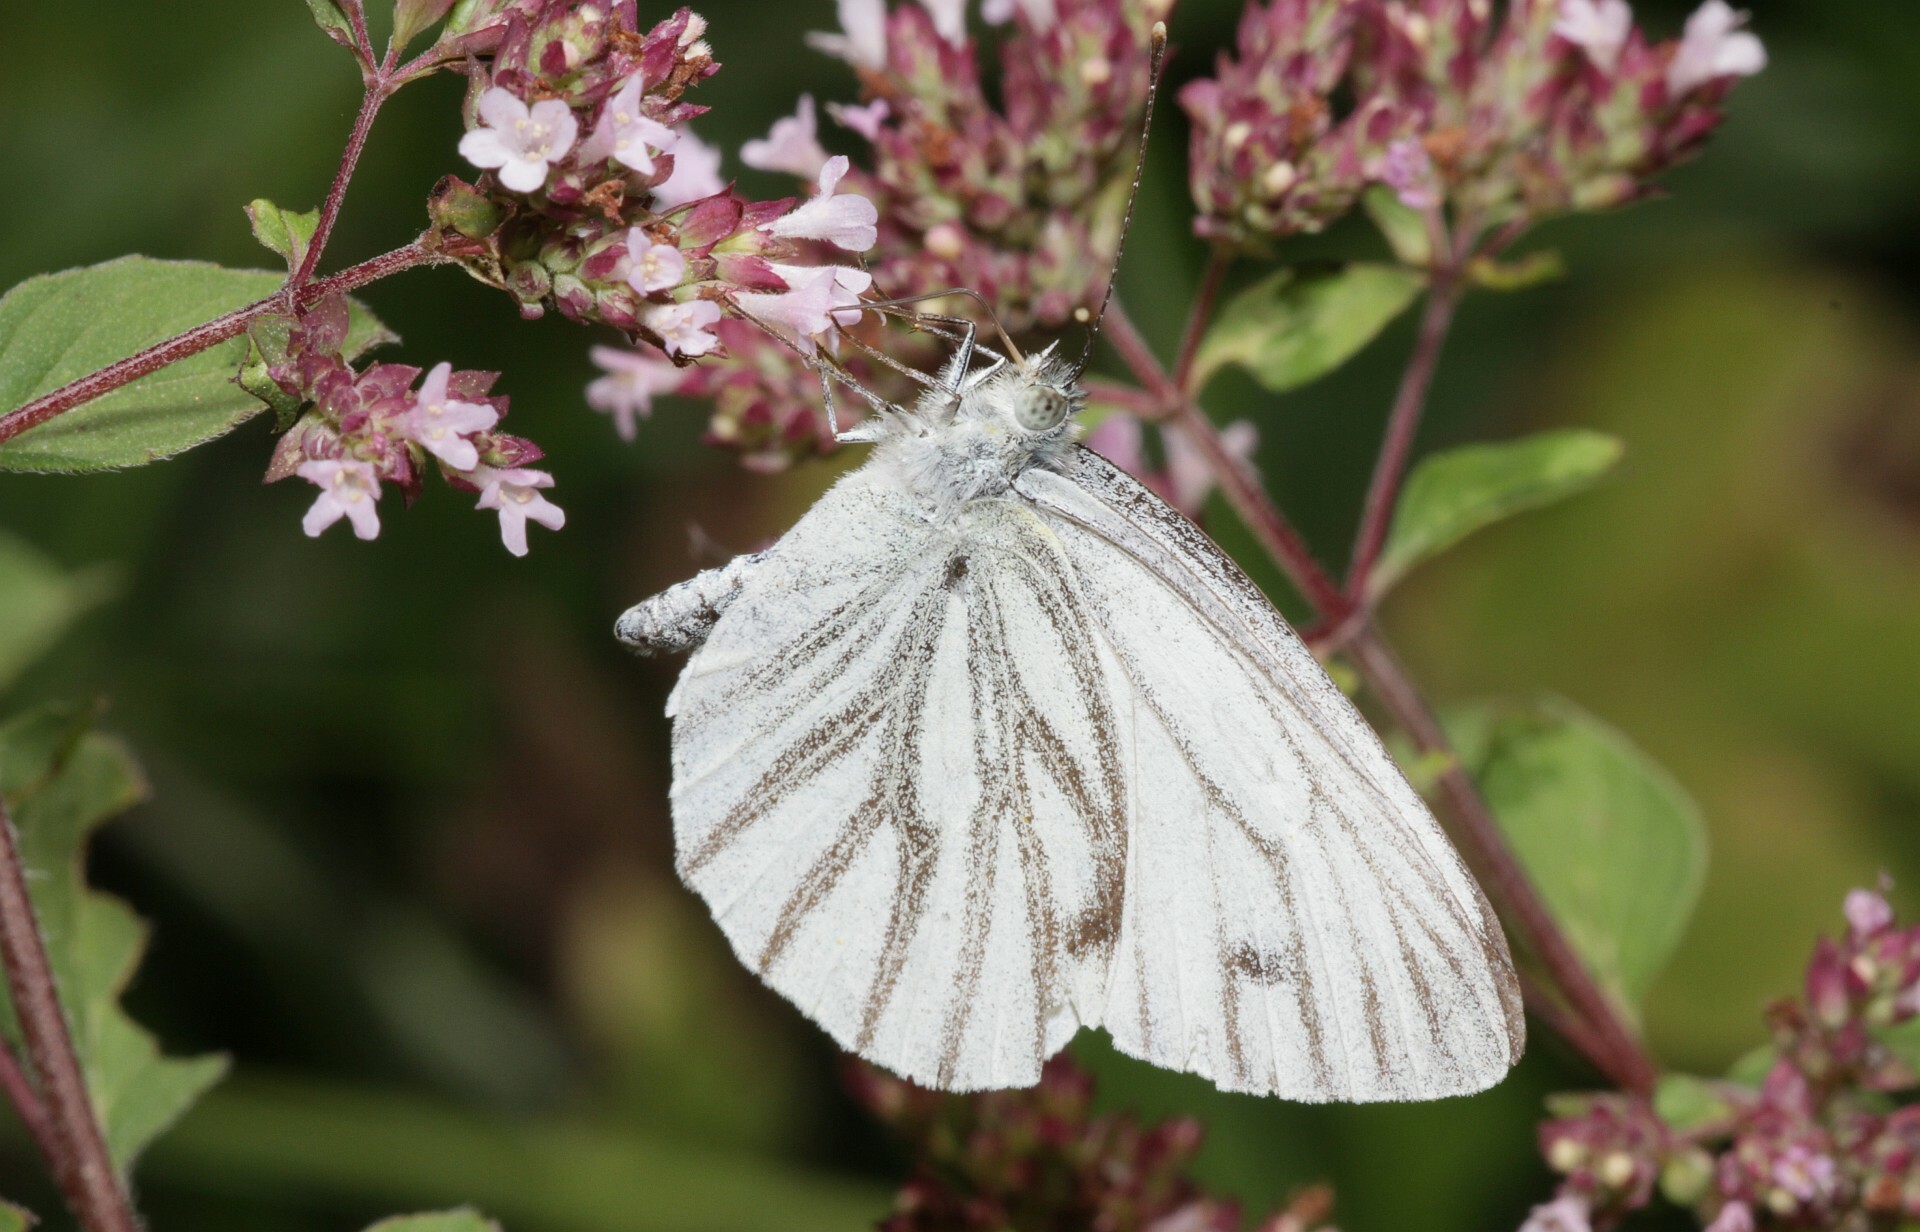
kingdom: Animalia
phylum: Arthropoda
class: Insecta
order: Lepidoptera
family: Pieridae
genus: Pieris
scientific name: Pieris napi
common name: Green-veined white
